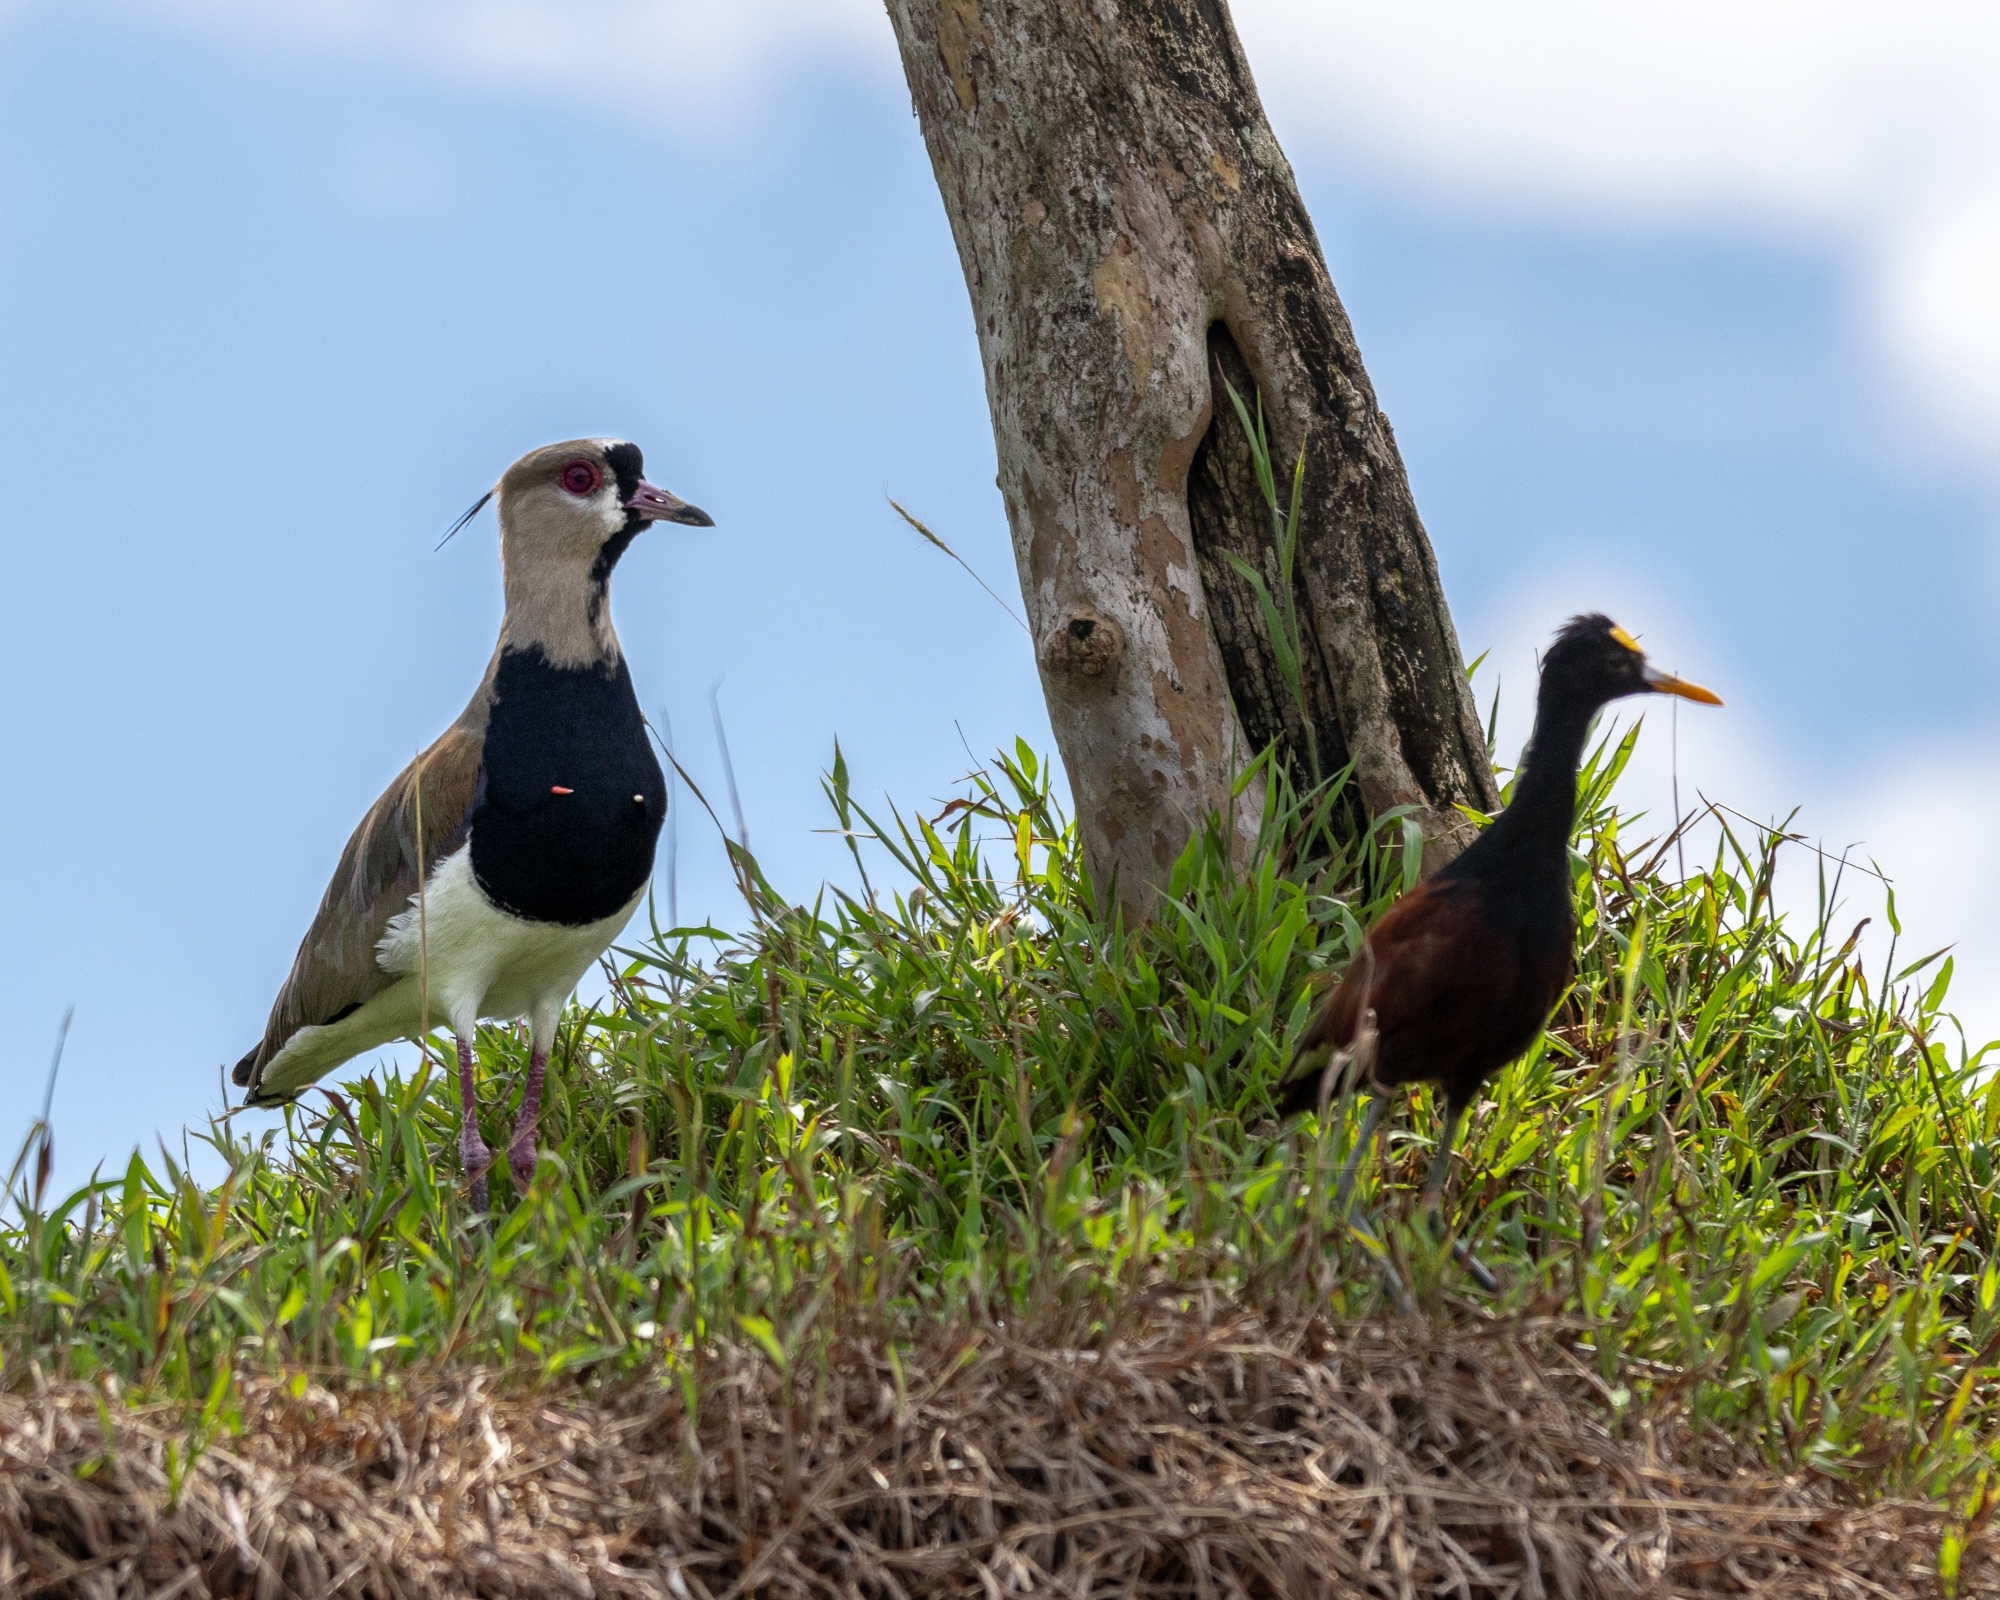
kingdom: Animalia
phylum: Chordata
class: Aves
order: Charadriiformes
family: Charadriidae
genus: Vanellus
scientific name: Vanellus chilensis
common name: Southern lapwing
